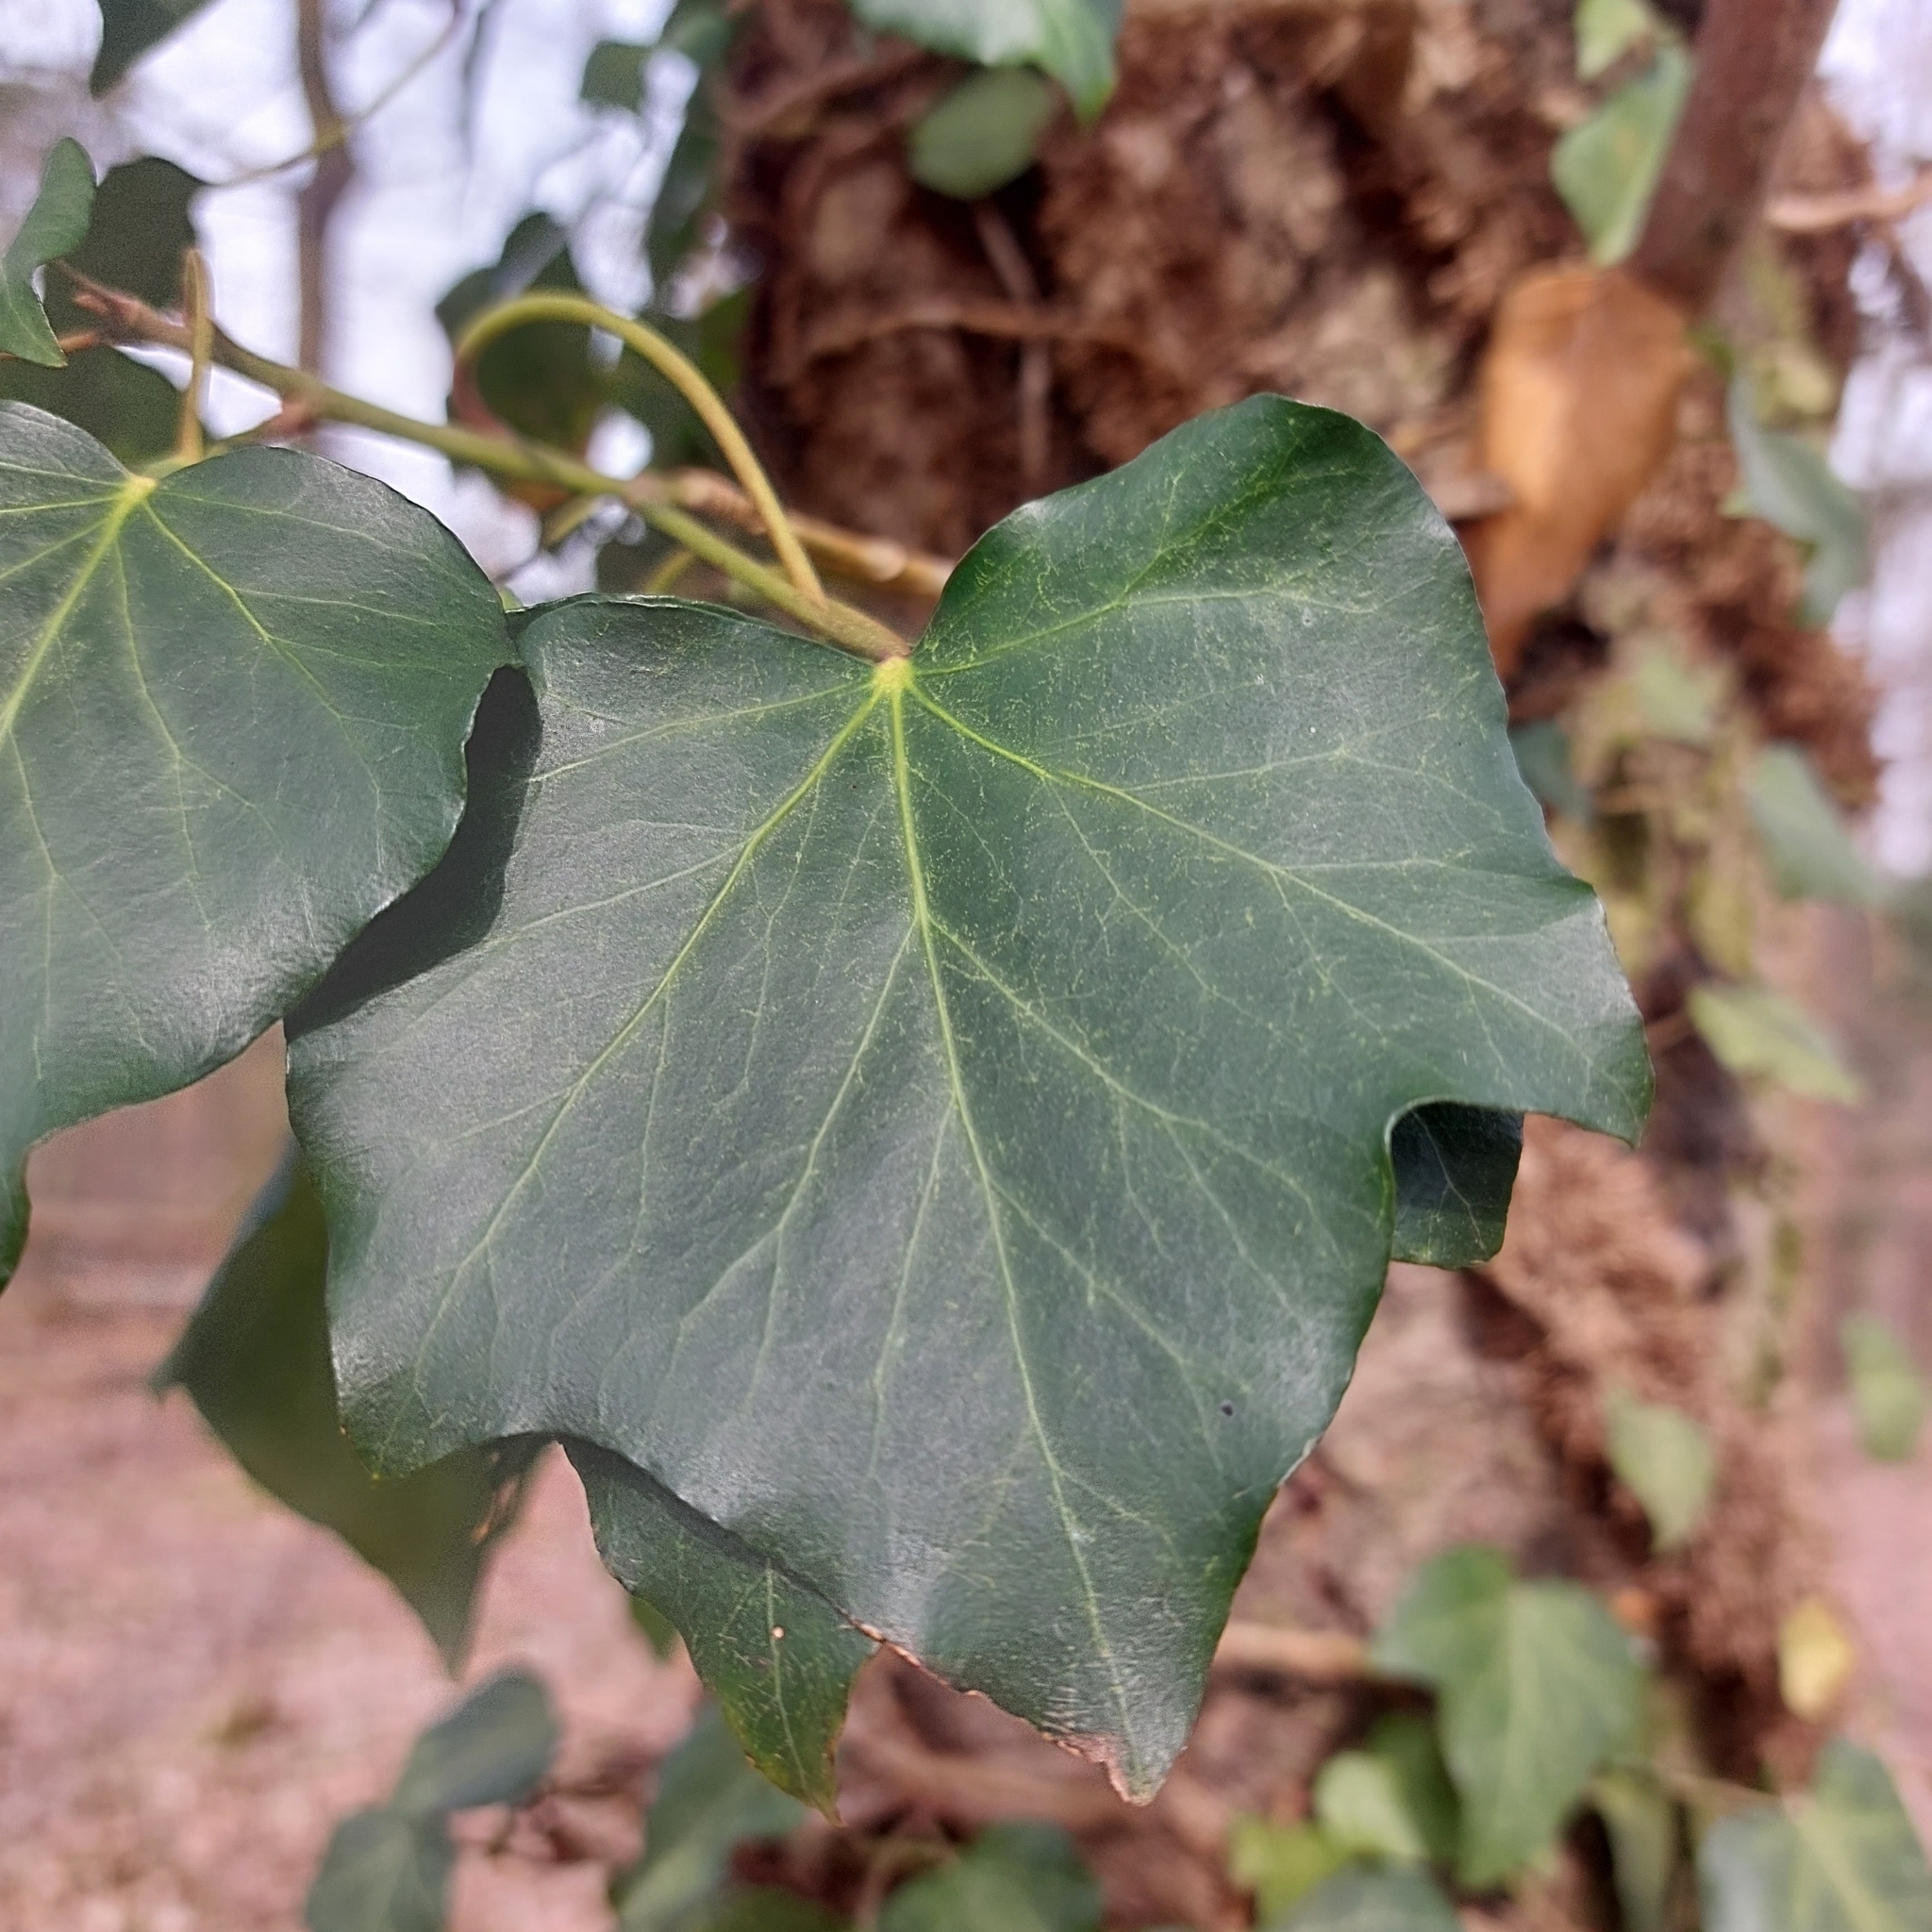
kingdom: Plantae
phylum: Tracheophyta
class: Magnoliopsida
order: Apiales
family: Araliaceae
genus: Hedera
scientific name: Hedera helix
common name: Ivy
